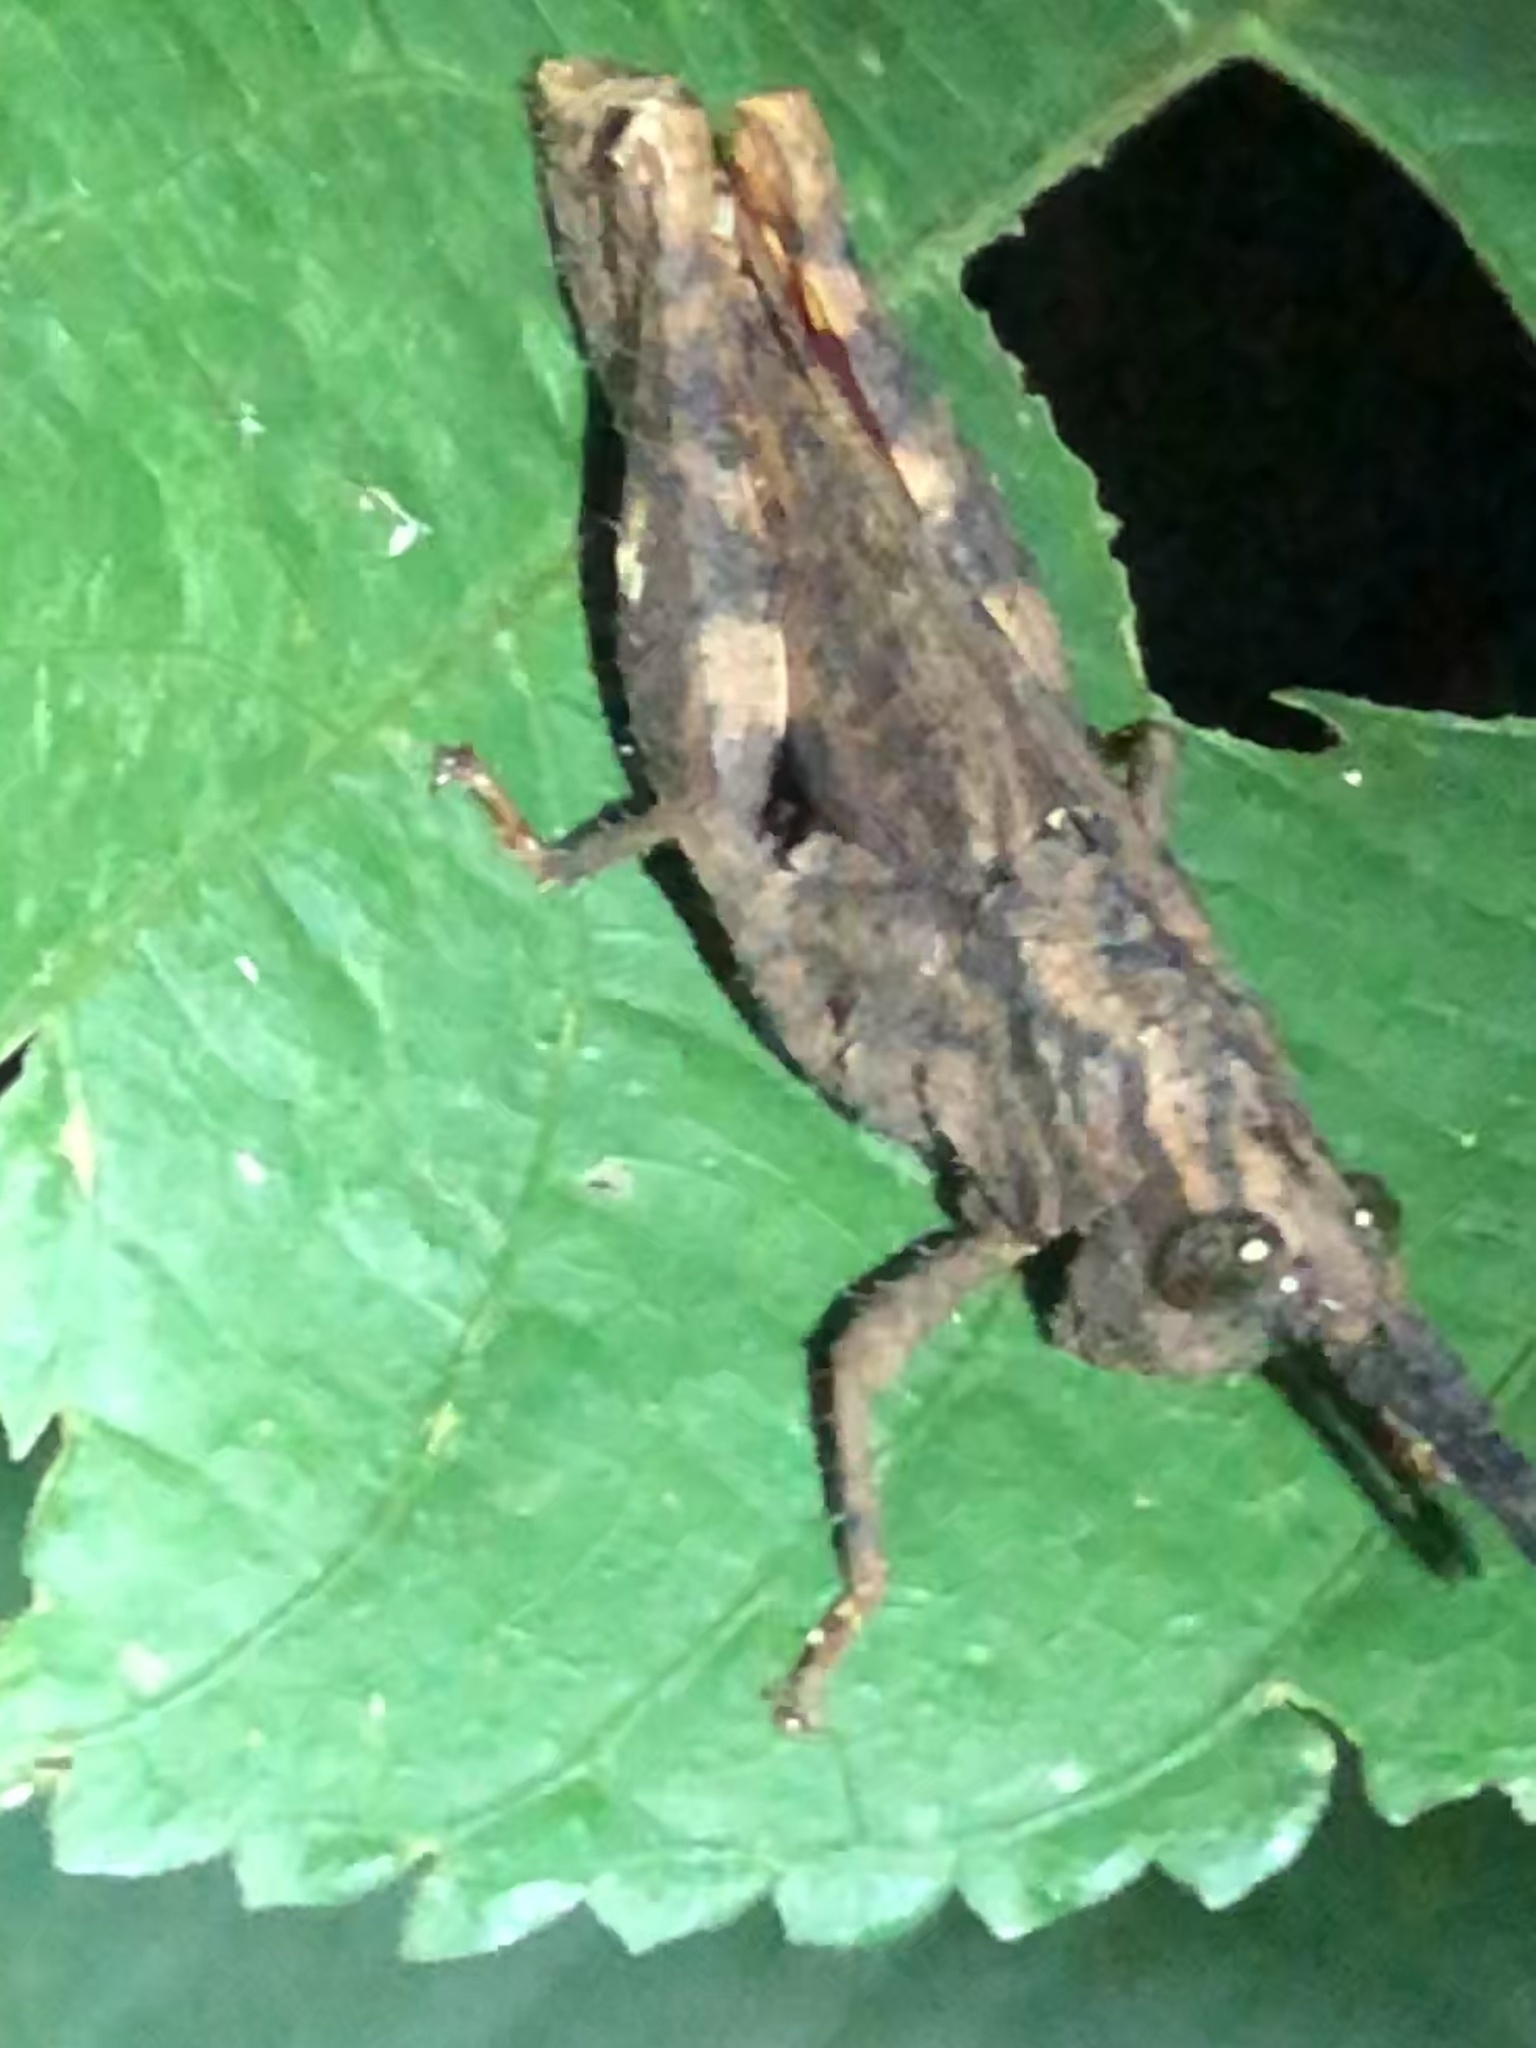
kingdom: Animalia
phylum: Arthropoda
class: Insecta
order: Orthoptera
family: Acrididae
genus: Locheuma
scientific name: Locheuma brunneri
